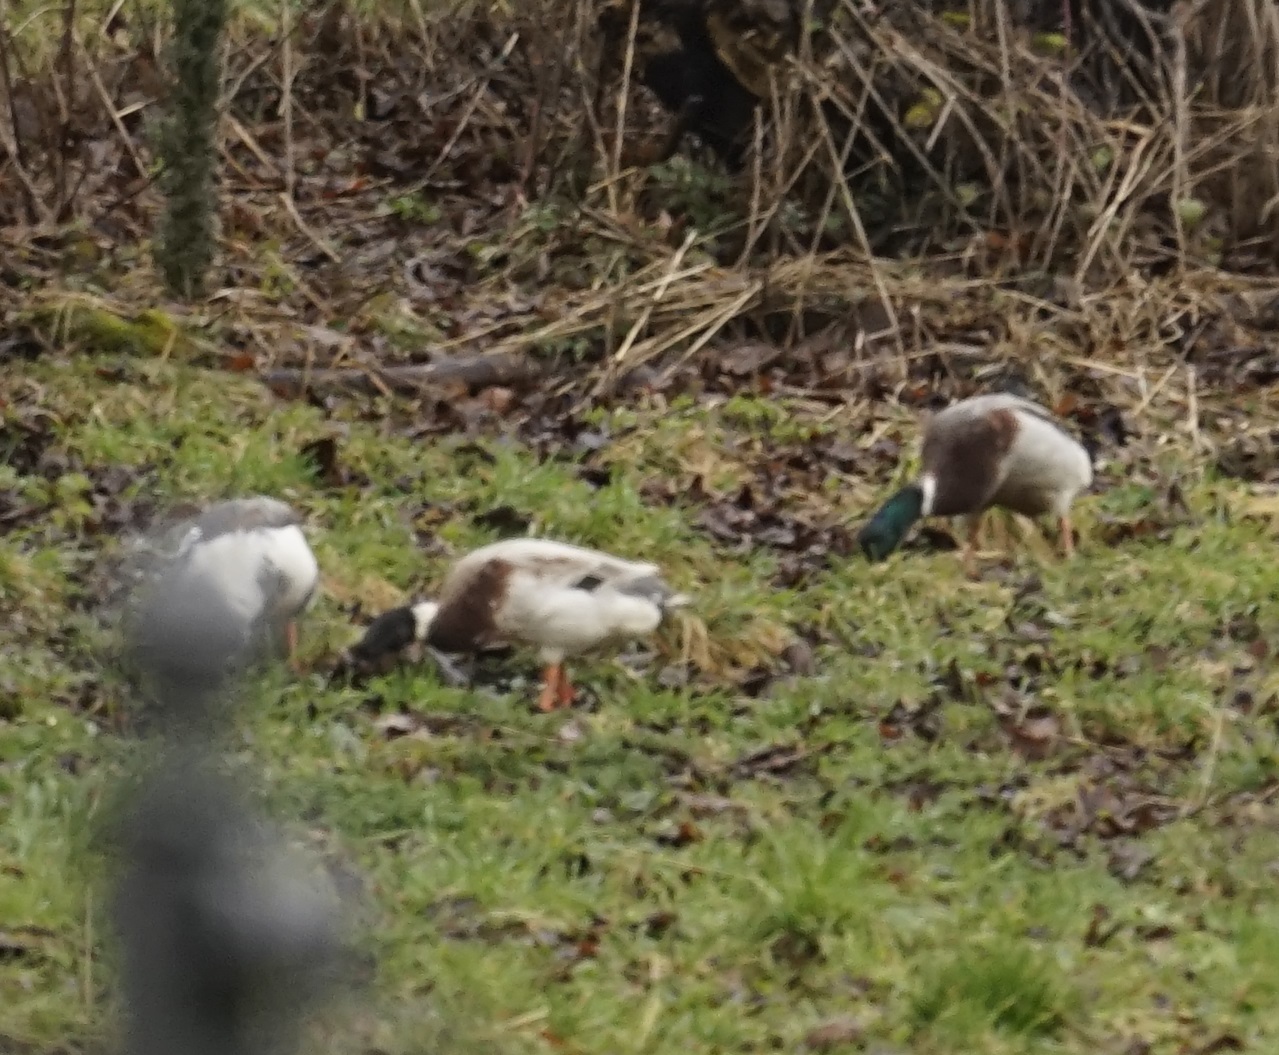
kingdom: Animalia
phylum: Chordata
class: Aves
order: Anseriformes
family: Anatidae
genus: Anas
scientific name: Anas platyrhynchos
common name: Mallard
